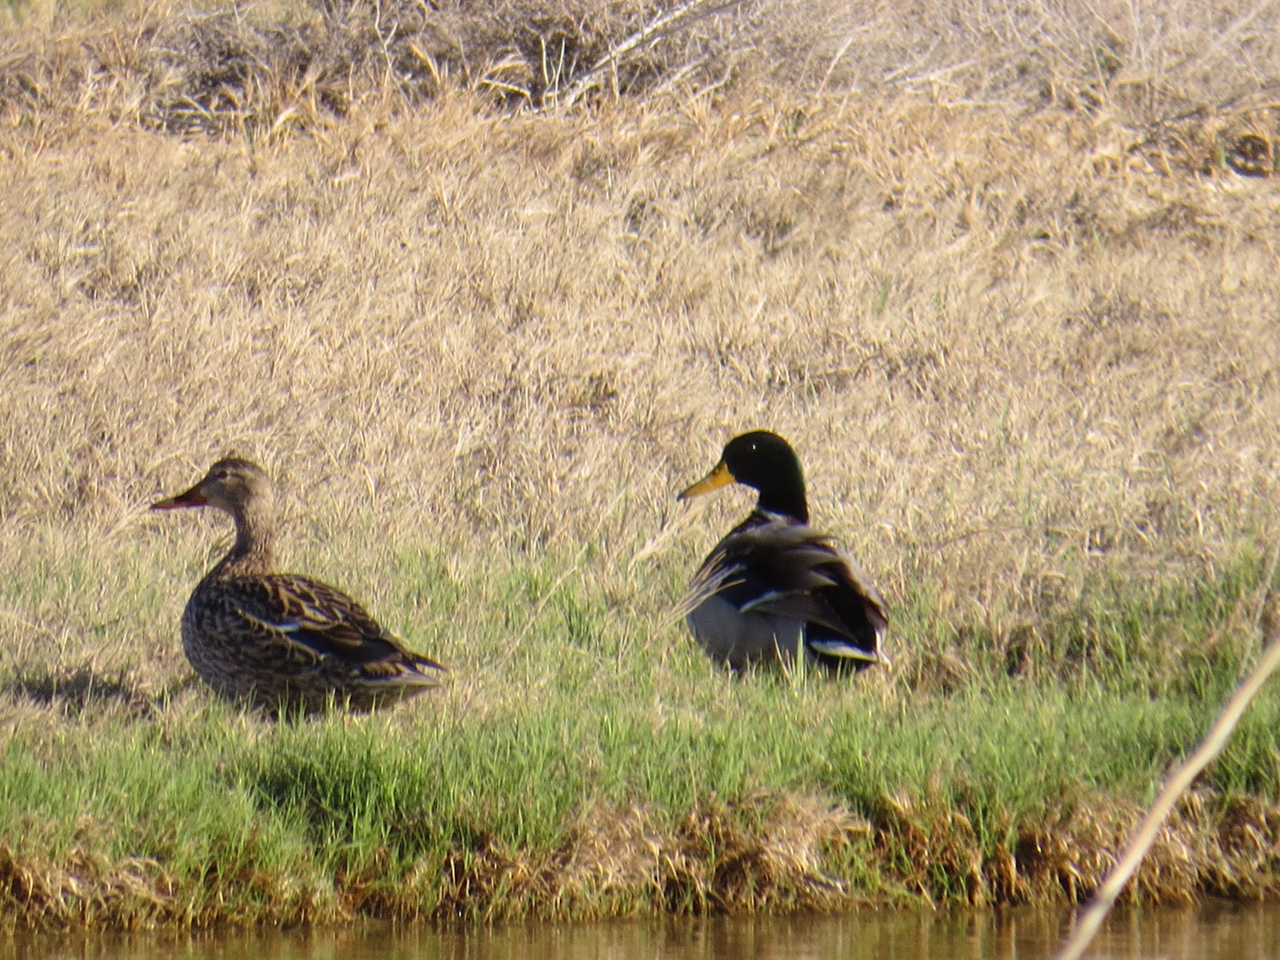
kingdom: Animalia
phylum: Chordata
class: Aves
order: Anseriformes
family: Anatidae
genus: Anas
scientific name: Anas platyrhynchos
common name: Mallard
